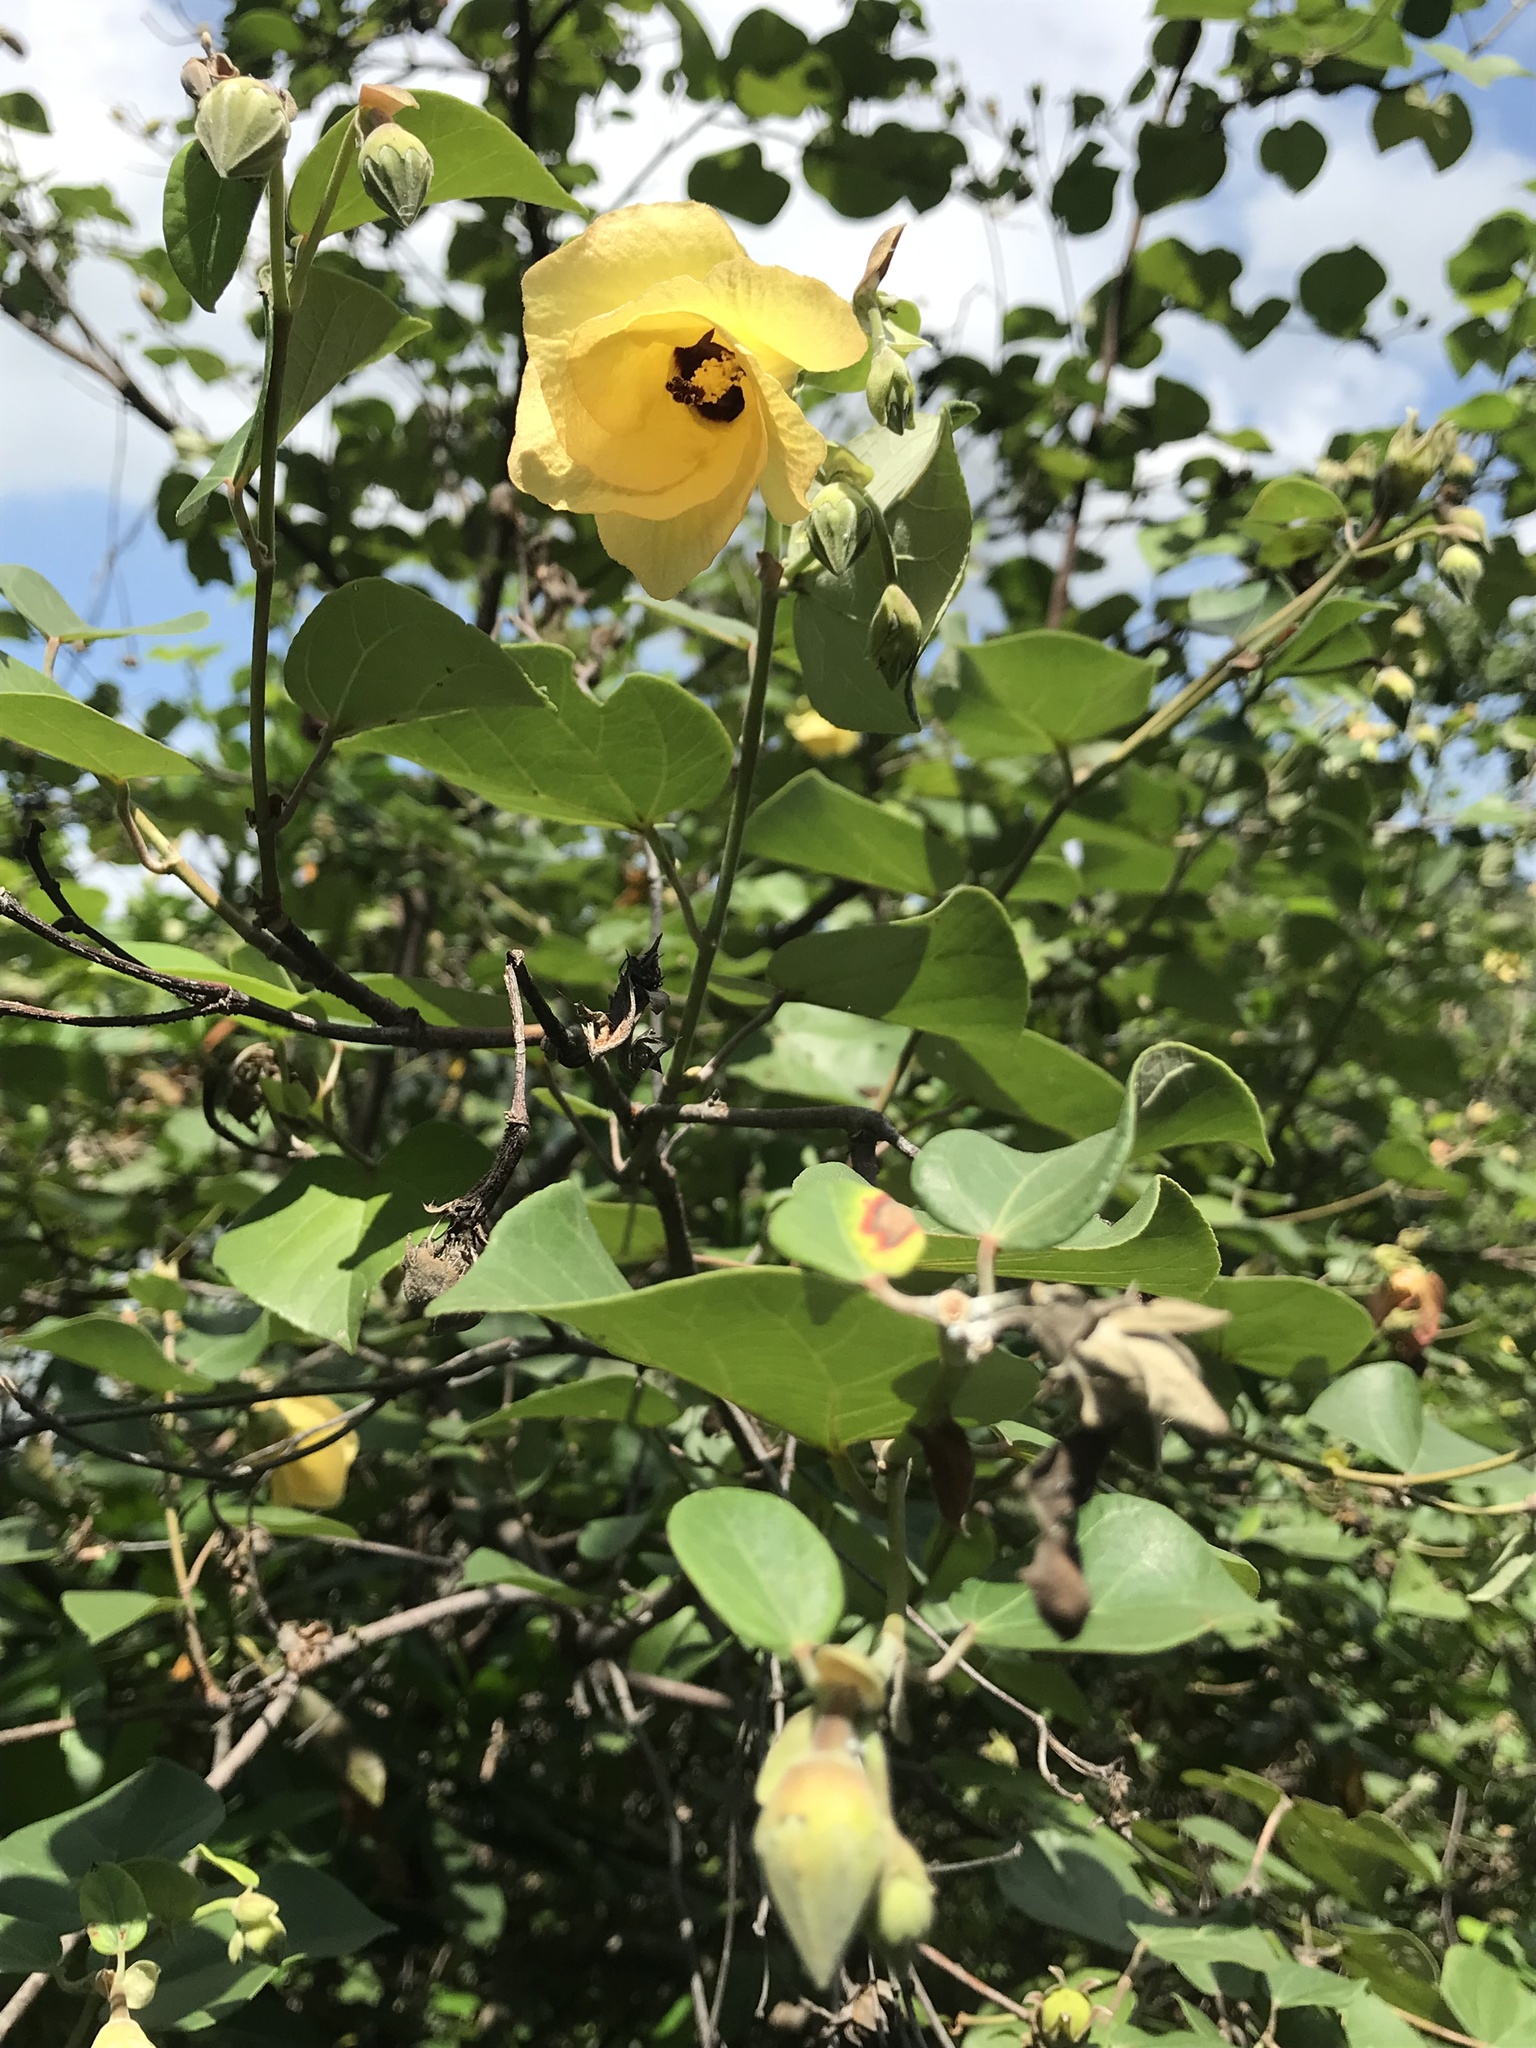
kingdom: Plantae
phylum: Tracheophyta
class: Magnoliopsida
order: Malvales
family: Malvaceae
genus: Talipariti
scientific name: Talipariti tiliaceum
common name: Sea hibiscus
